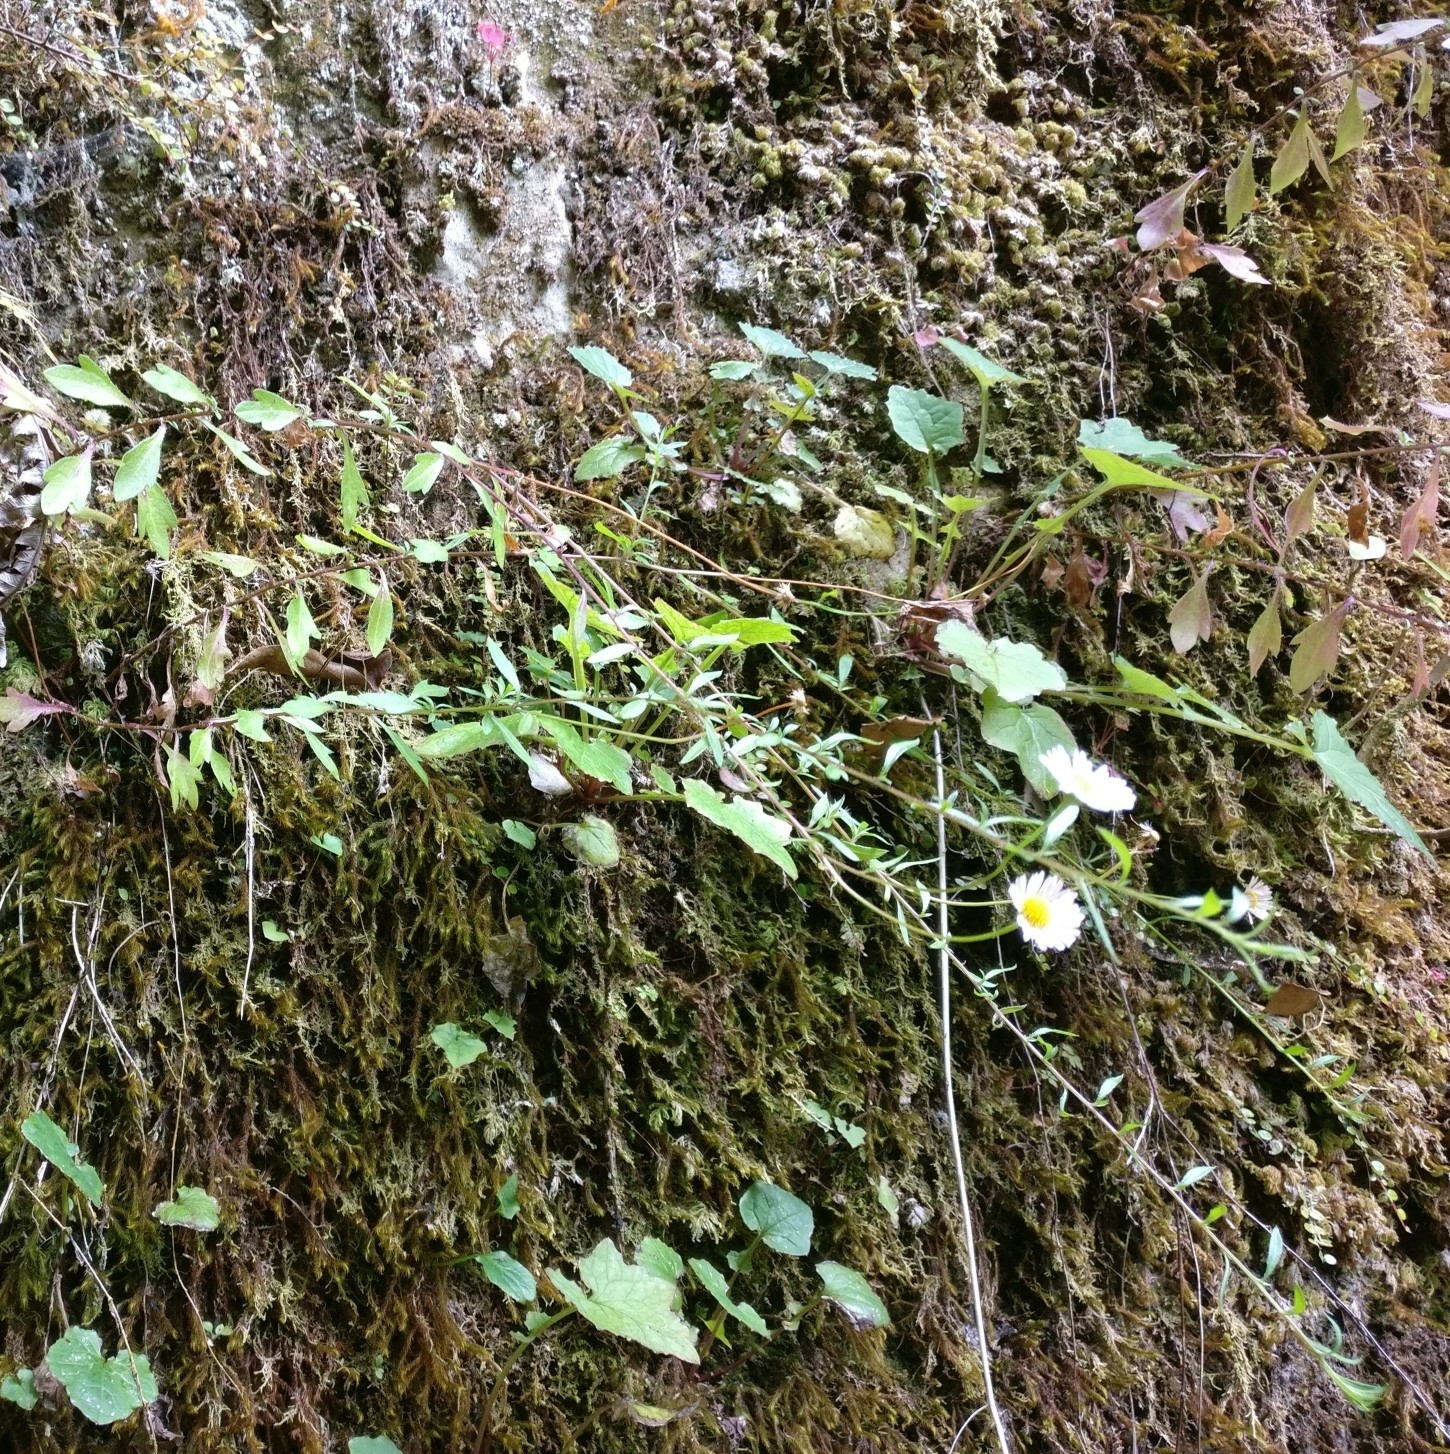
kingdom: Plantae
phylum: Tracheophyta
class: Magnoliopsida
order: Asterales
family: Asteraceae
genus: Erigeron
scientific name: Erigeron karvinskianus
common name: Mexican fleabane
